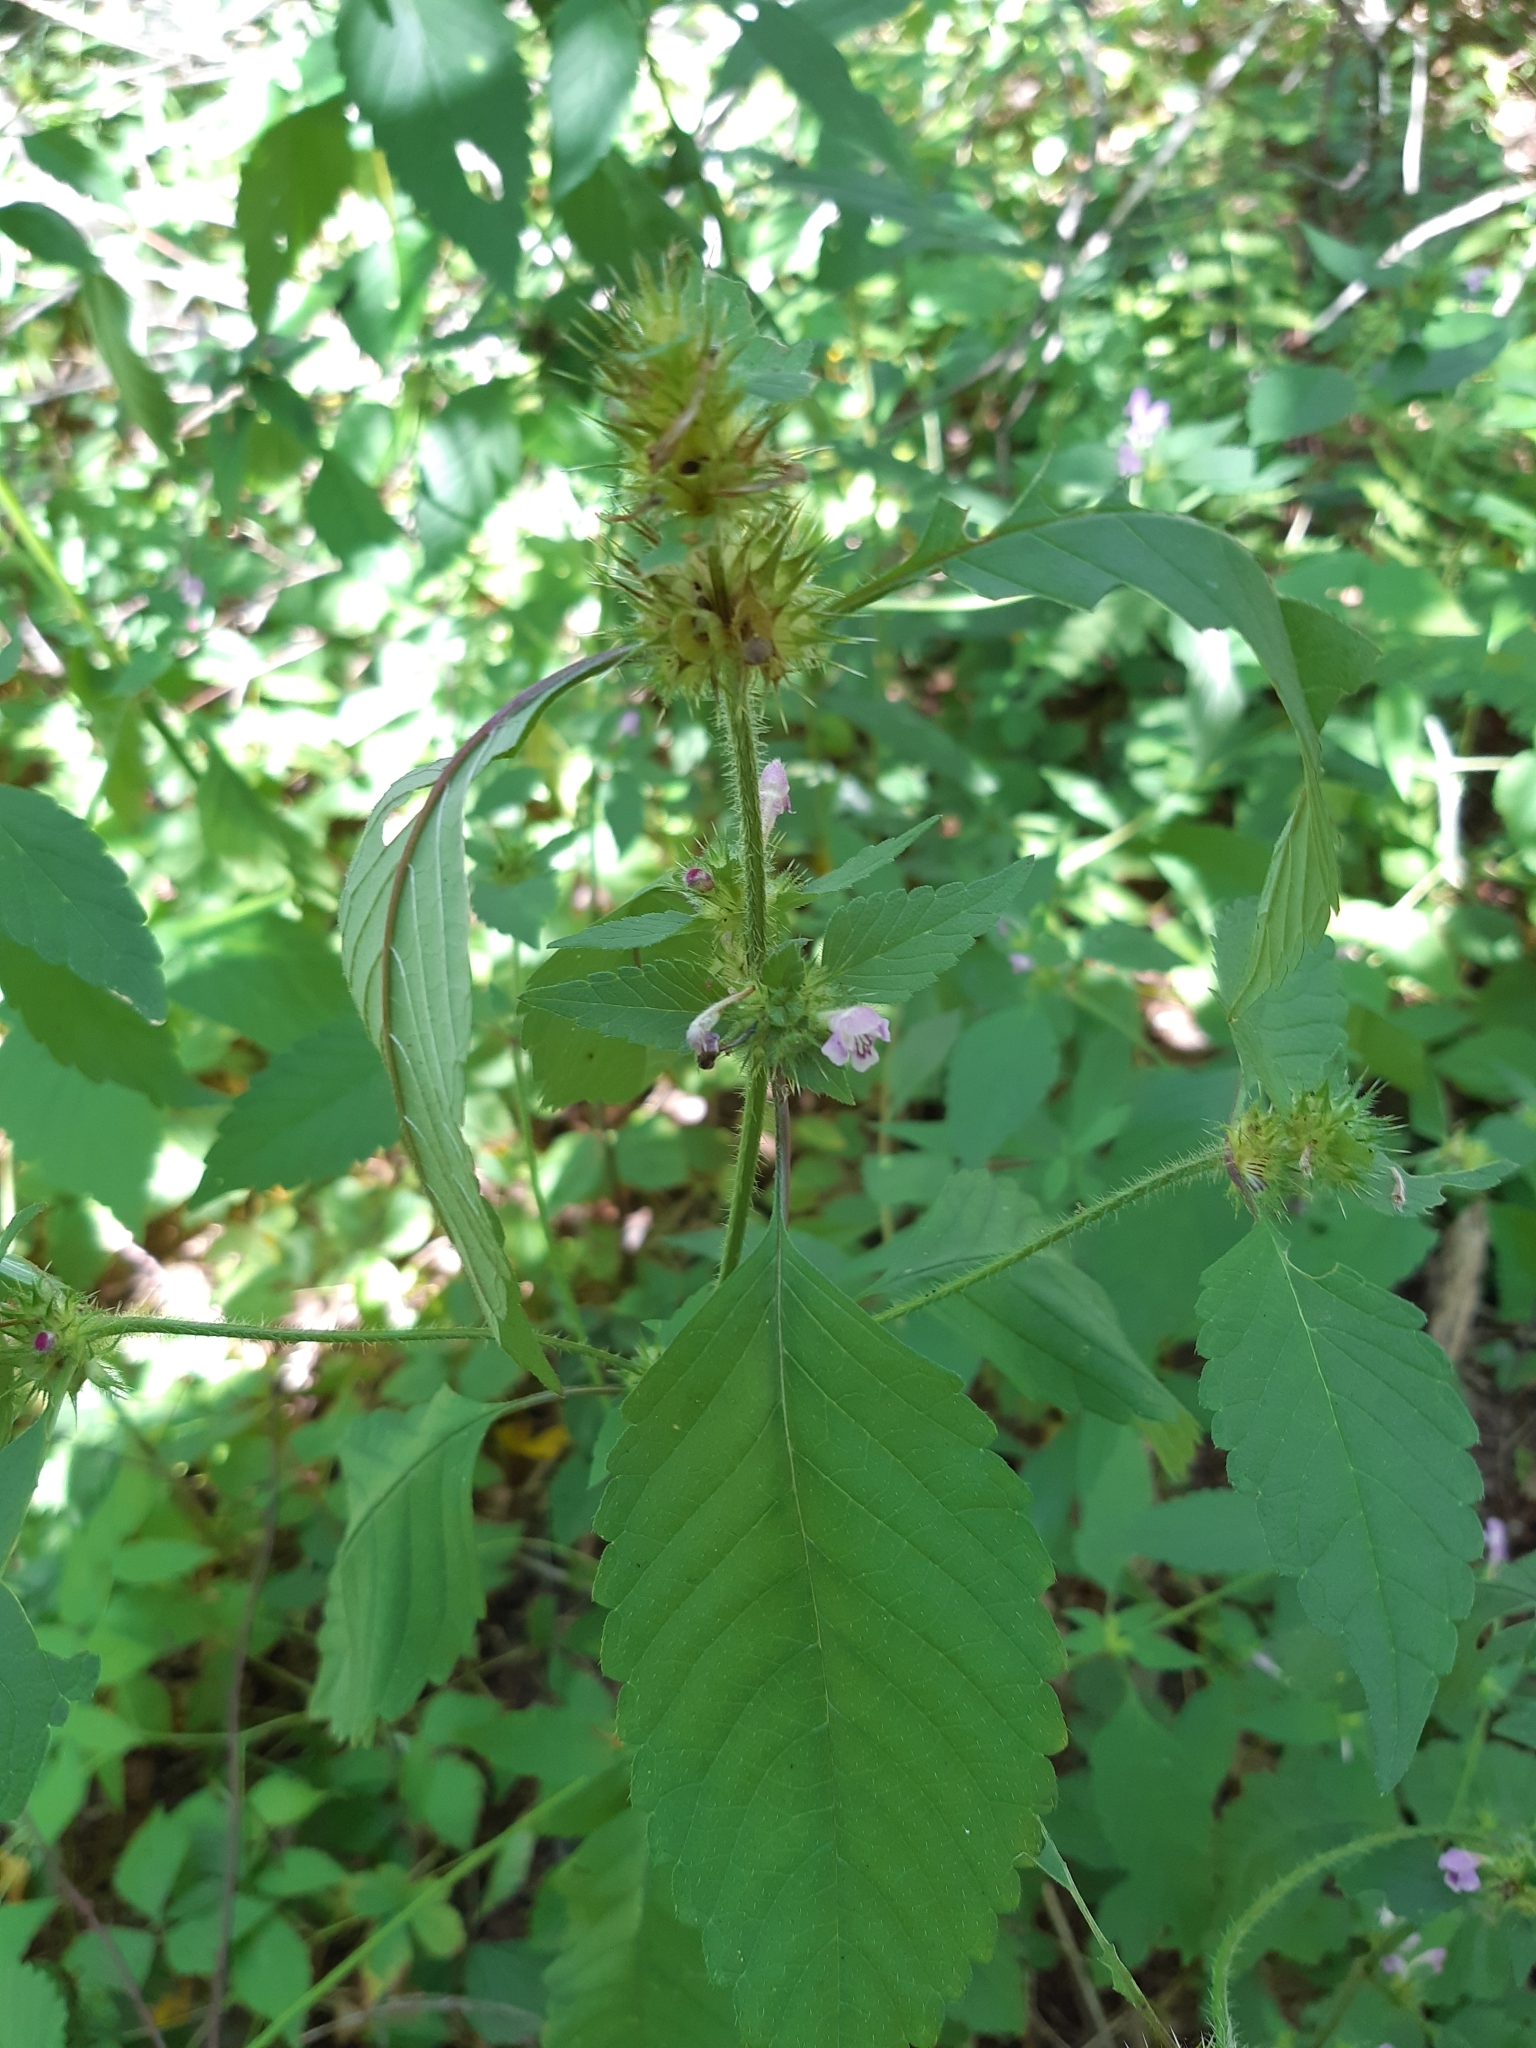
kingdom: Plantae
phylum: Tracheophyta
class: Magnoliopsida
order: Lamiales
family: Lamiaceae
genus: Galeopsis
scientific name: Galeopsis tetrahit
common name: Common hemp-nettle
